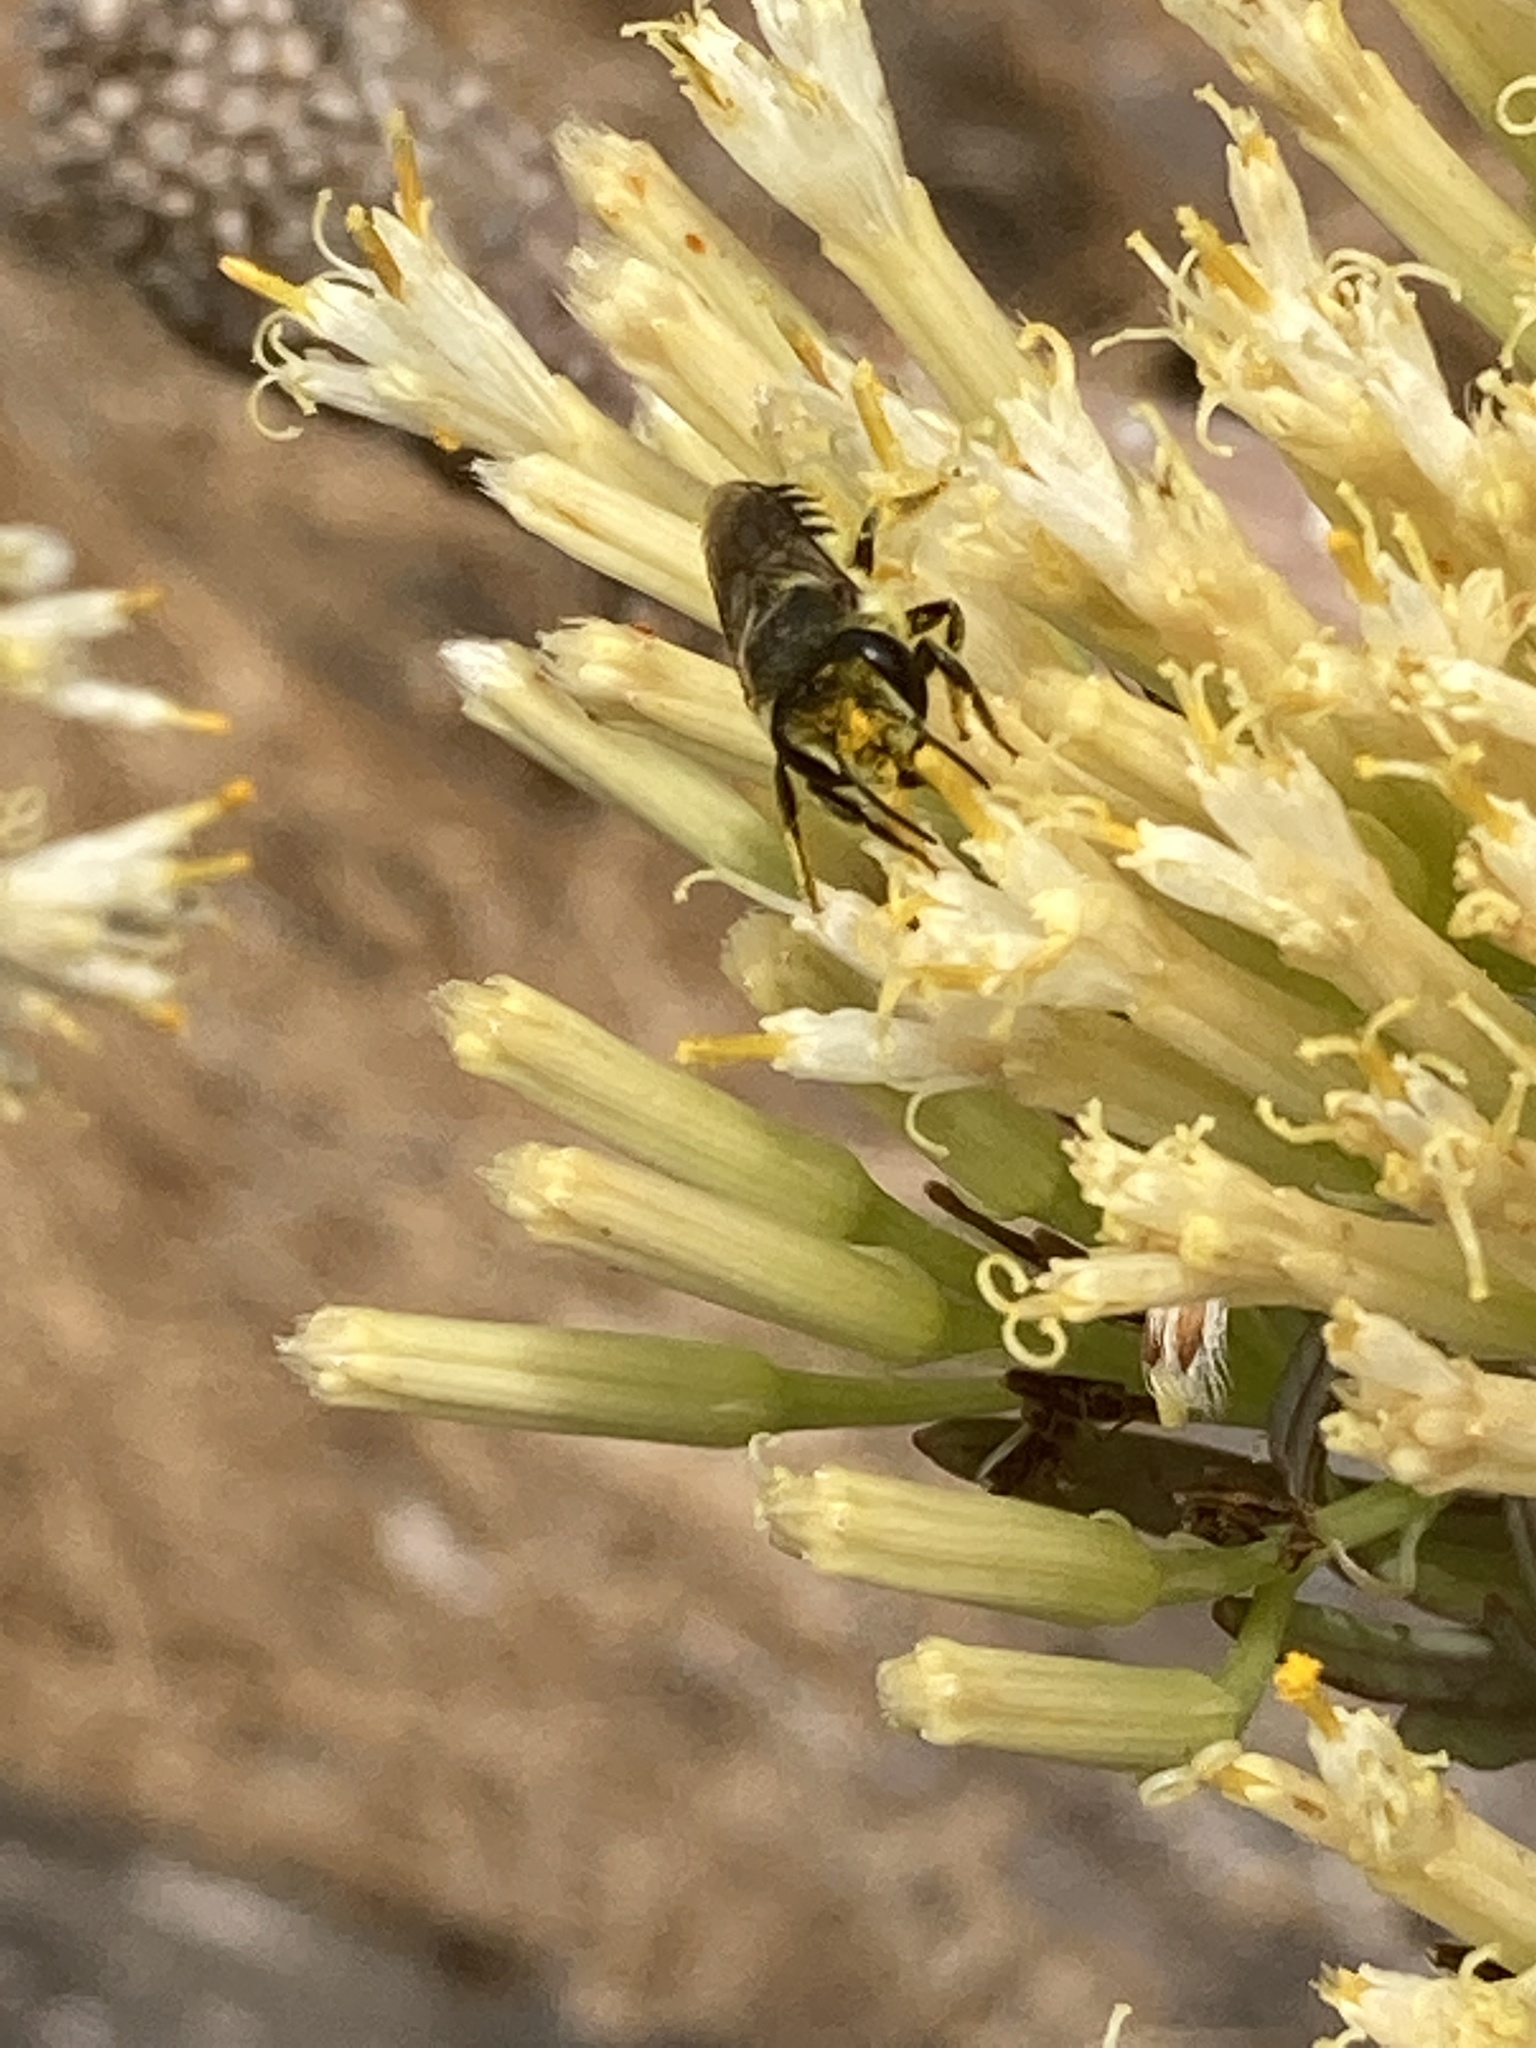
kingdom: Animalia
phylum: Arthropoda
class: Insecta
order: Hymenoptera
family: Megachilidae
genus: Megachile
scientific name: Megachile canariensis
